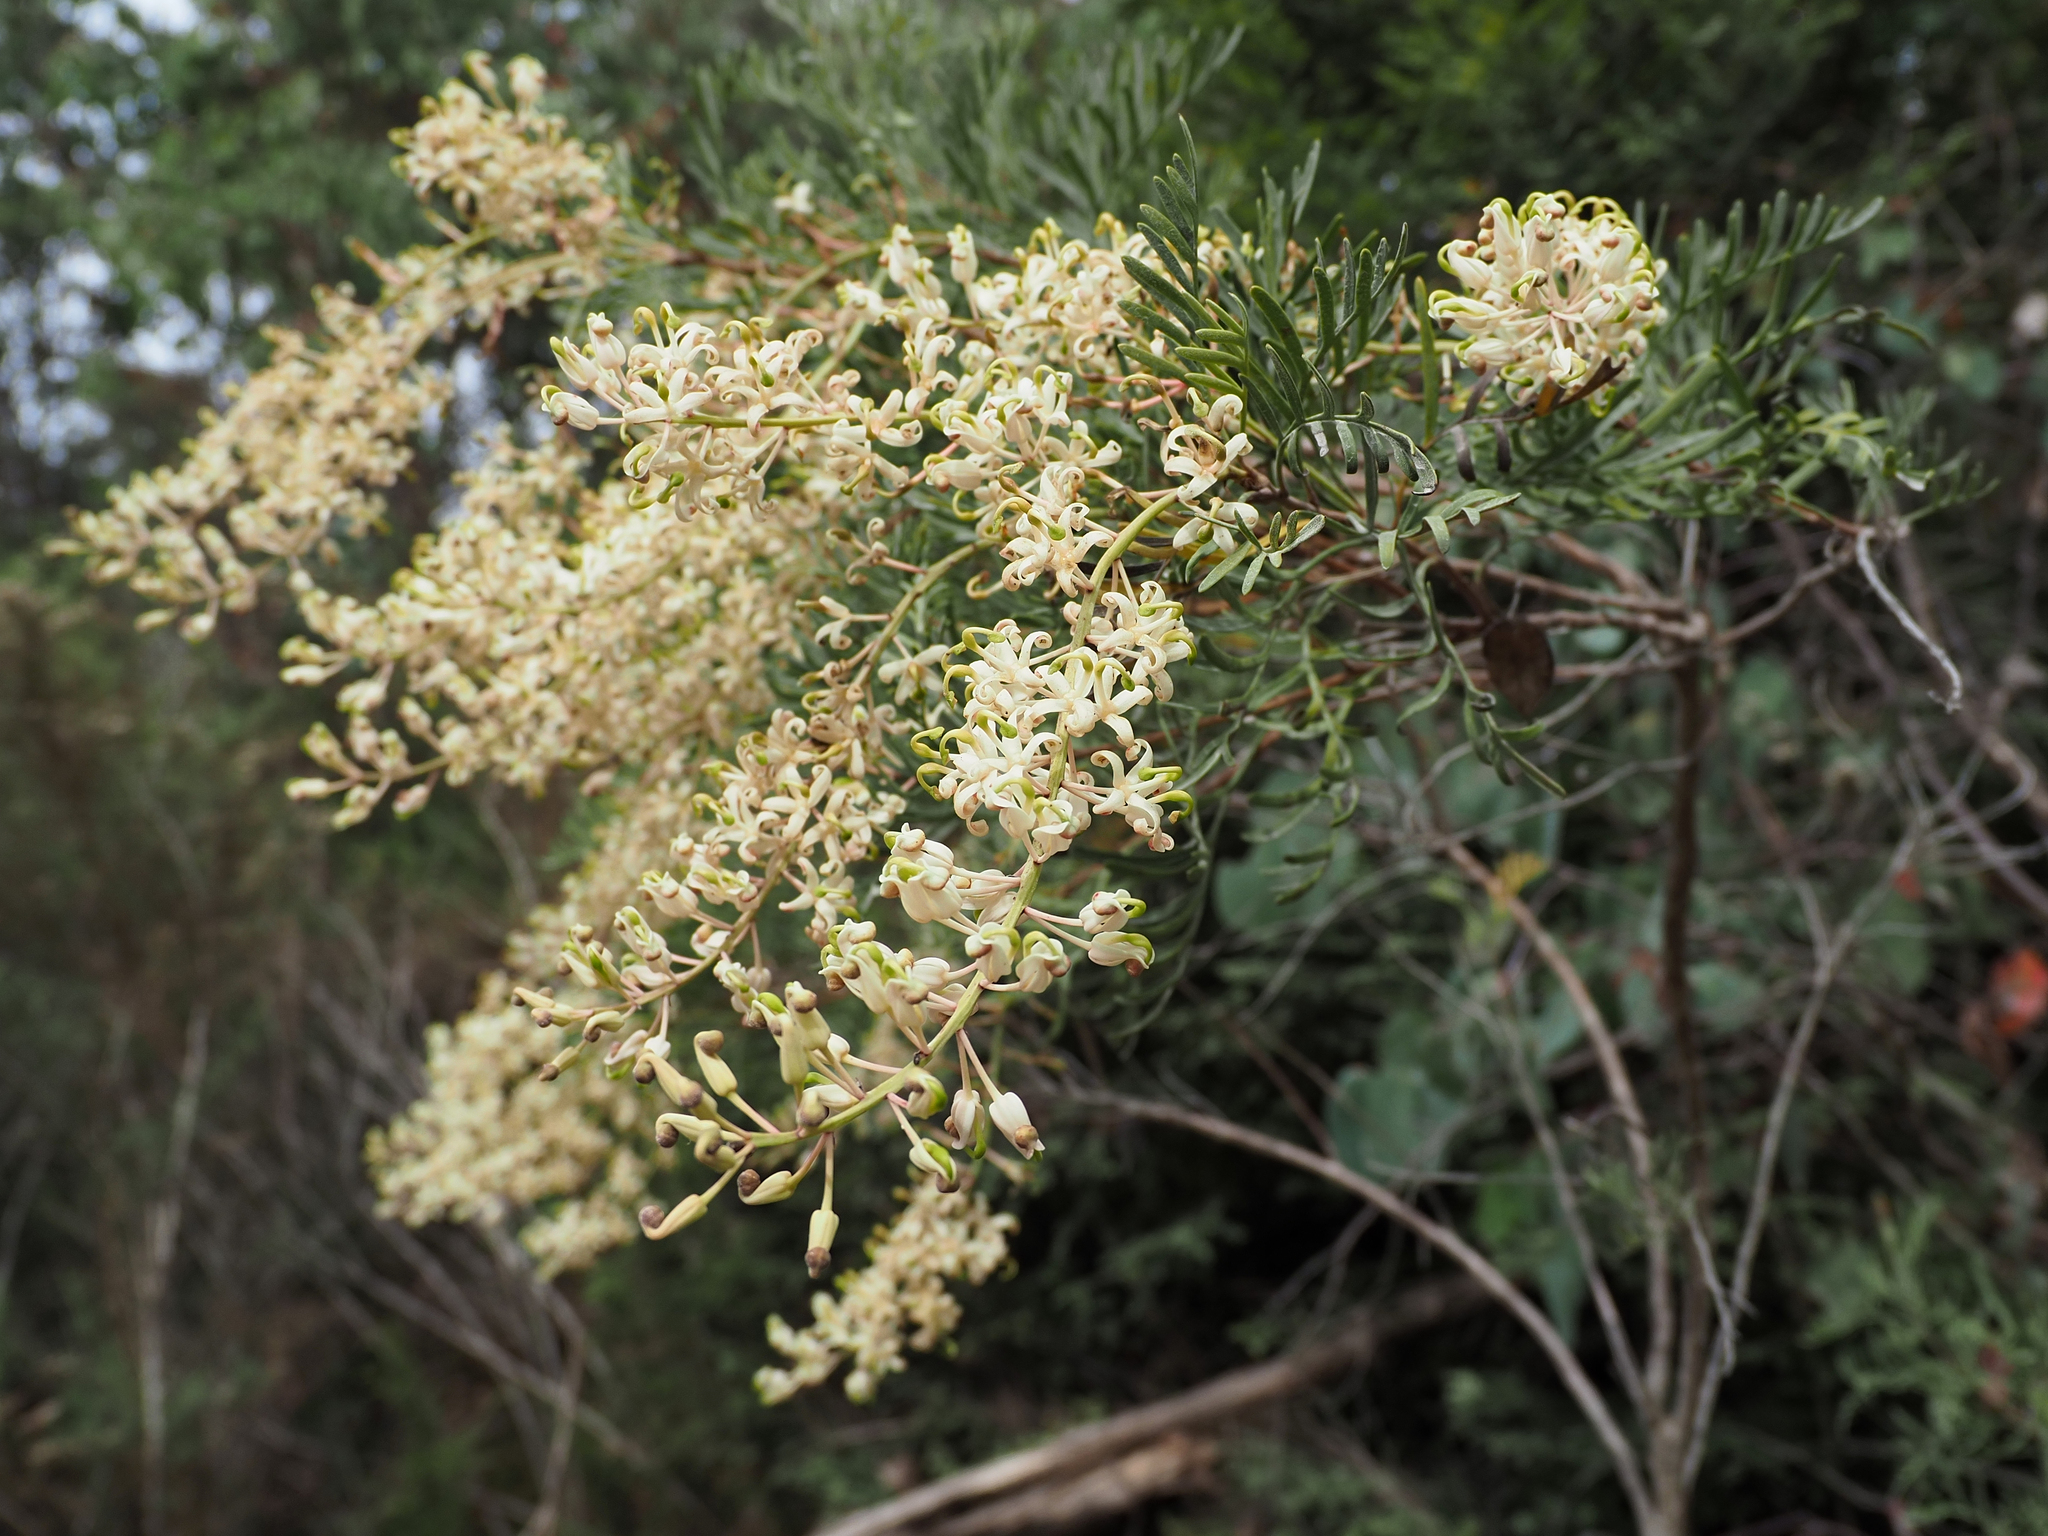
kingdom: Plantae
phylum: Tracheophyta
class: Magnoliopsida
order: Proteales
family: Proteaceae
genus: Lomatia
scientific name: Lomatia tinctoria
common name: Guitar plant
